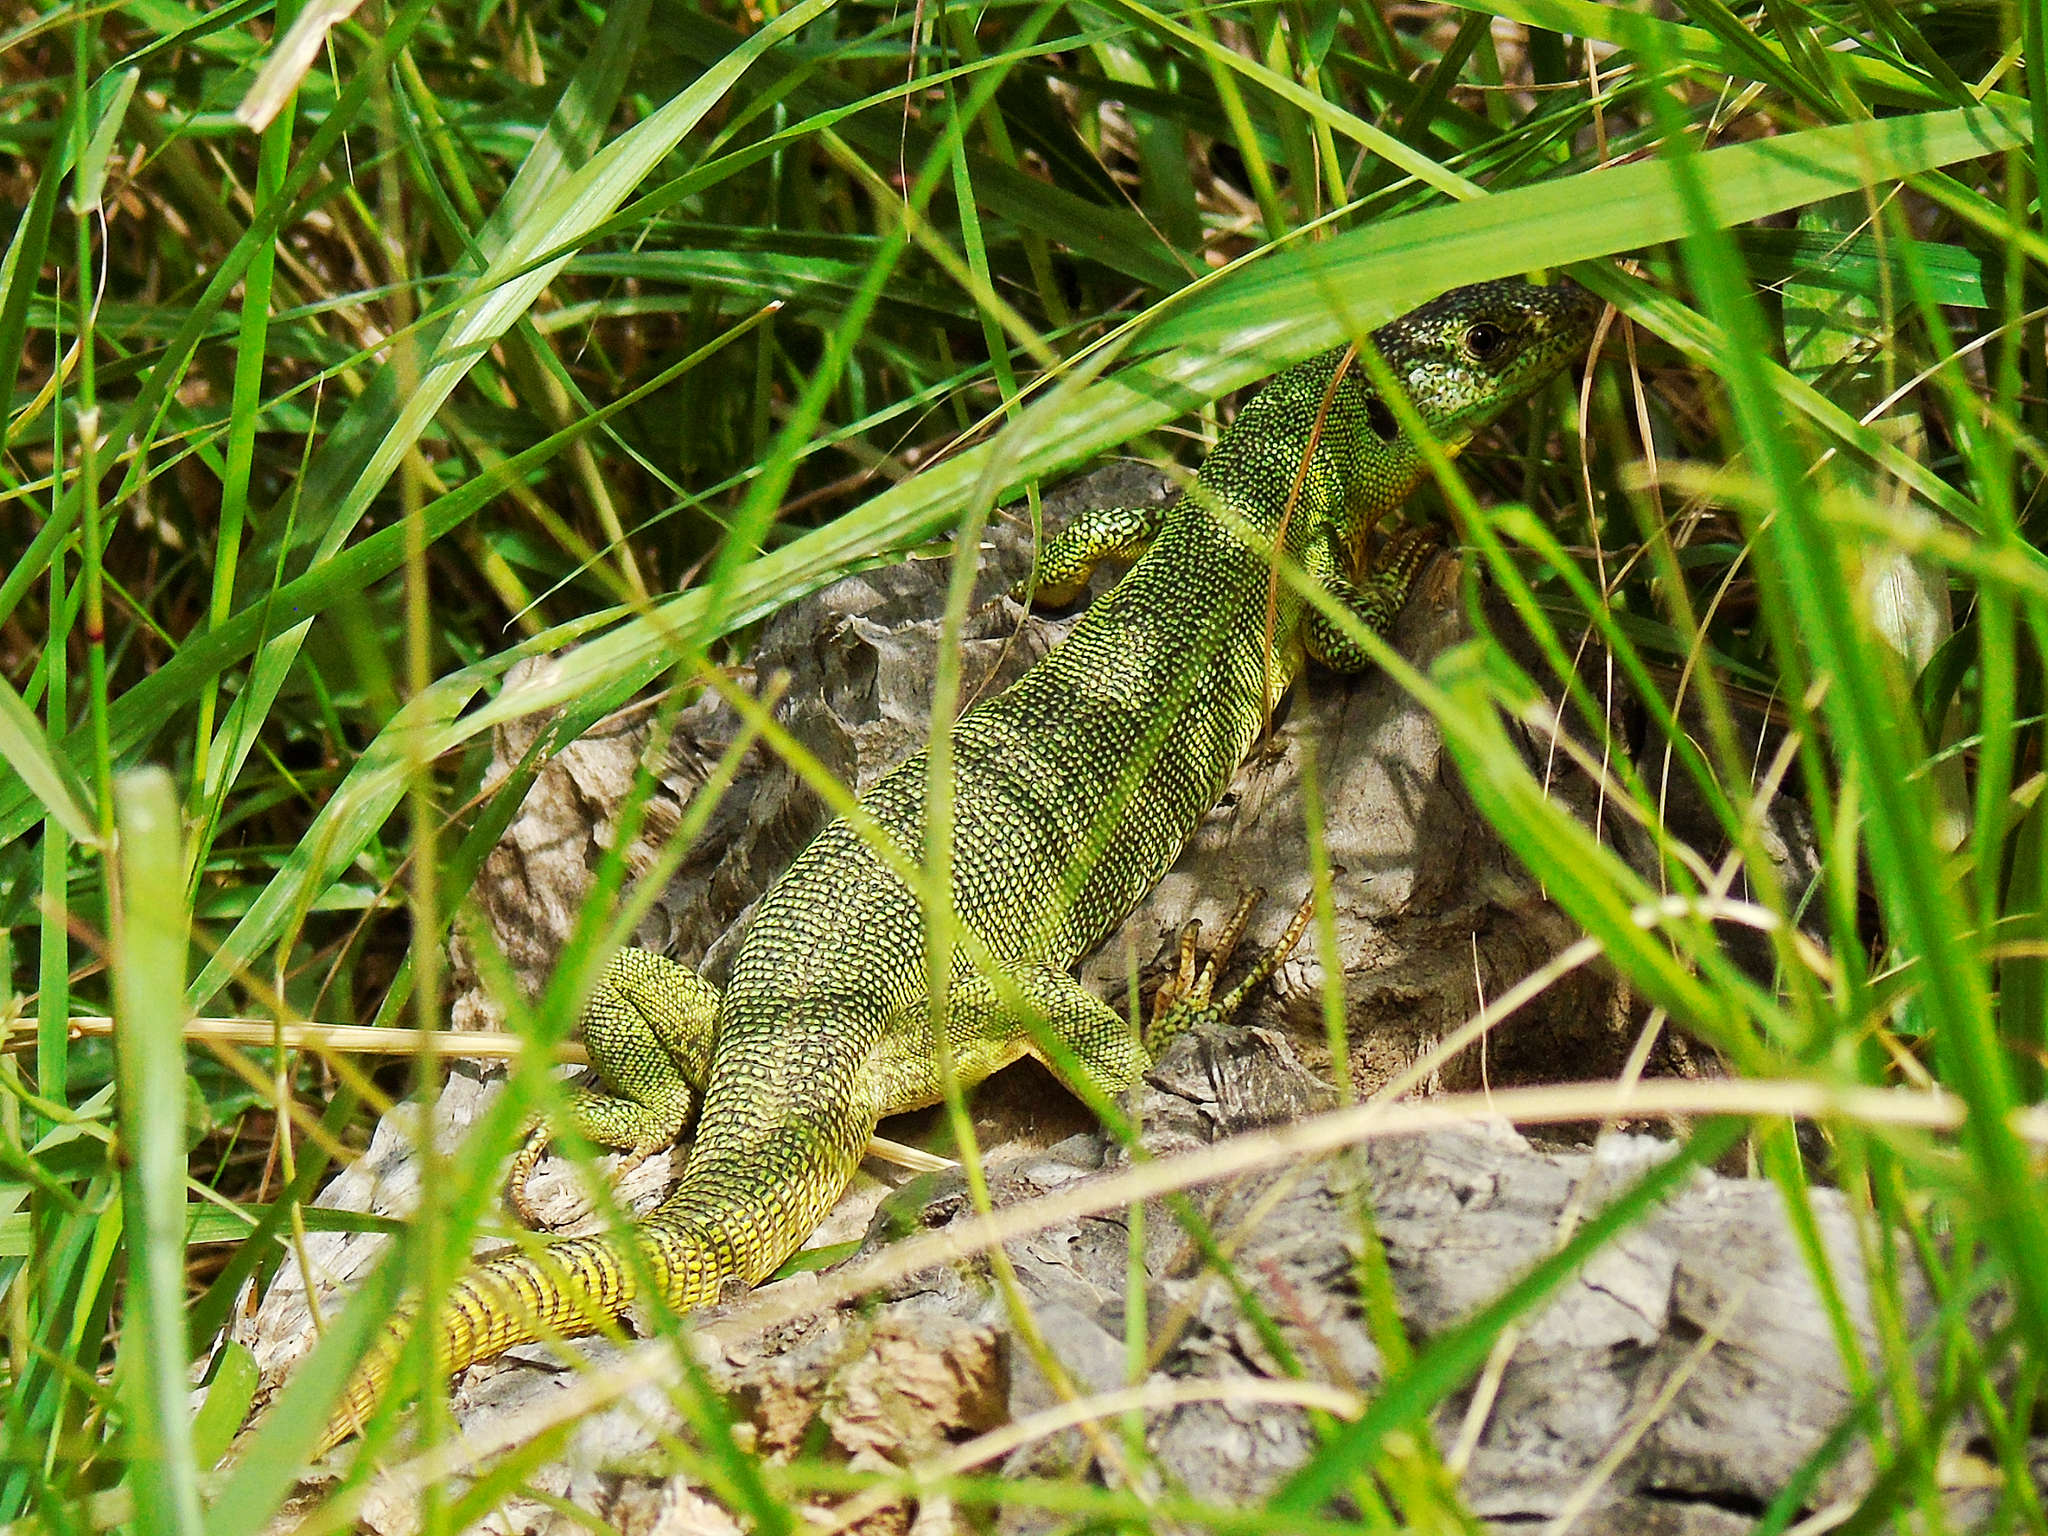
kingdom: Animalia
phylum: Chordata
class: Squamata
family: Lacertidae
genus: Lacerta
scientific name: Lacerta trilineata
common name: Balkan green lizard
